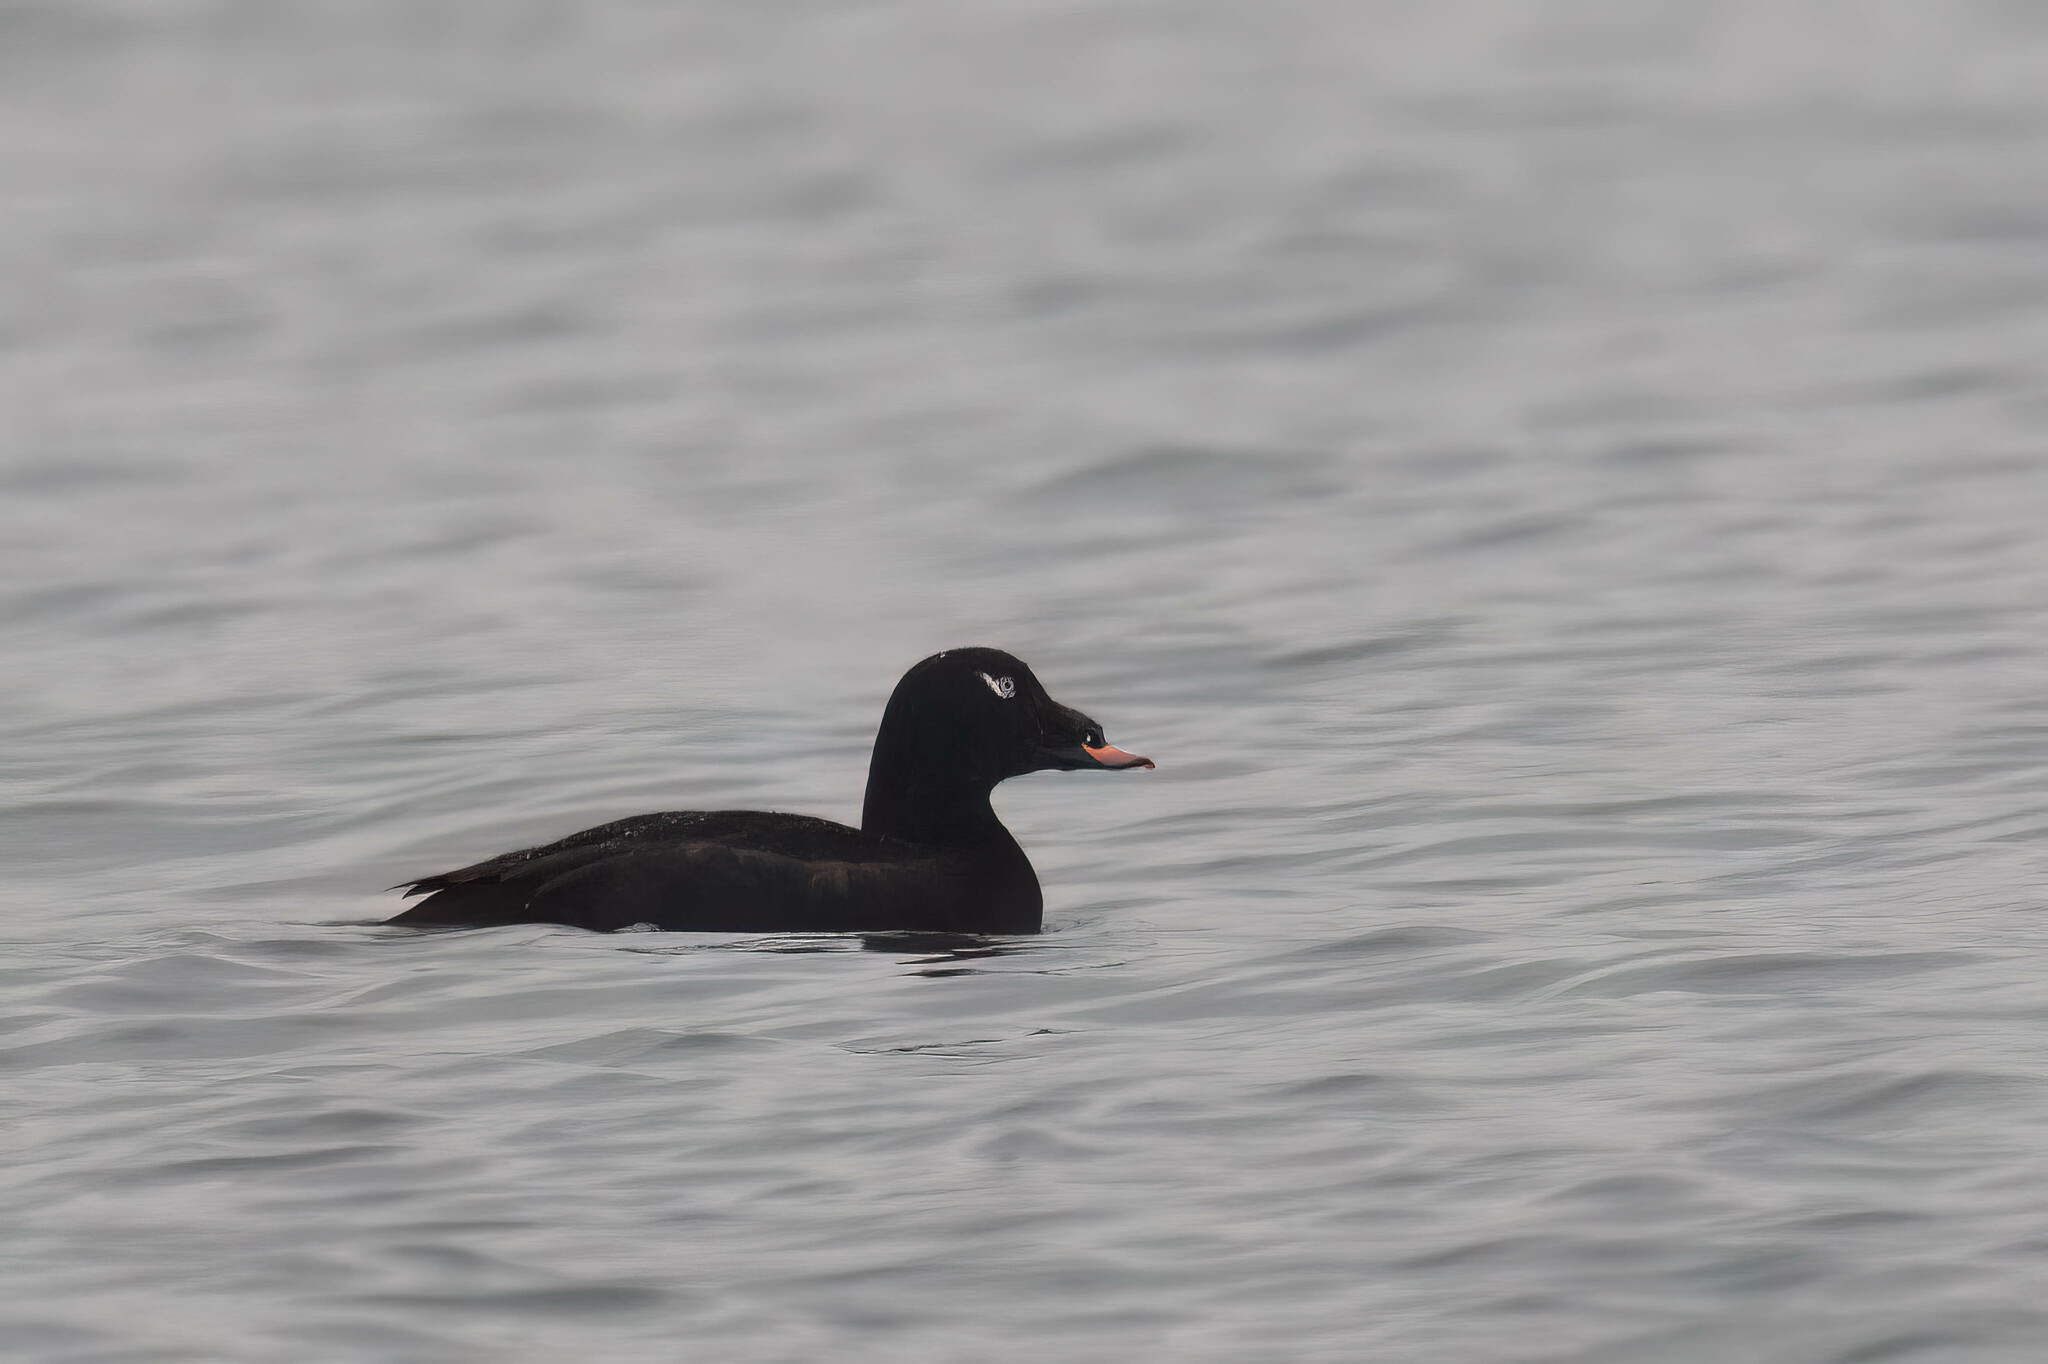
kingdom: Animalia
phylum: Chordata
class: Aves
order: Anseriformes
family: Anatidae
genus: Melanitta
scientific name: Melanitta deglandi
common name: White-winged scoter
